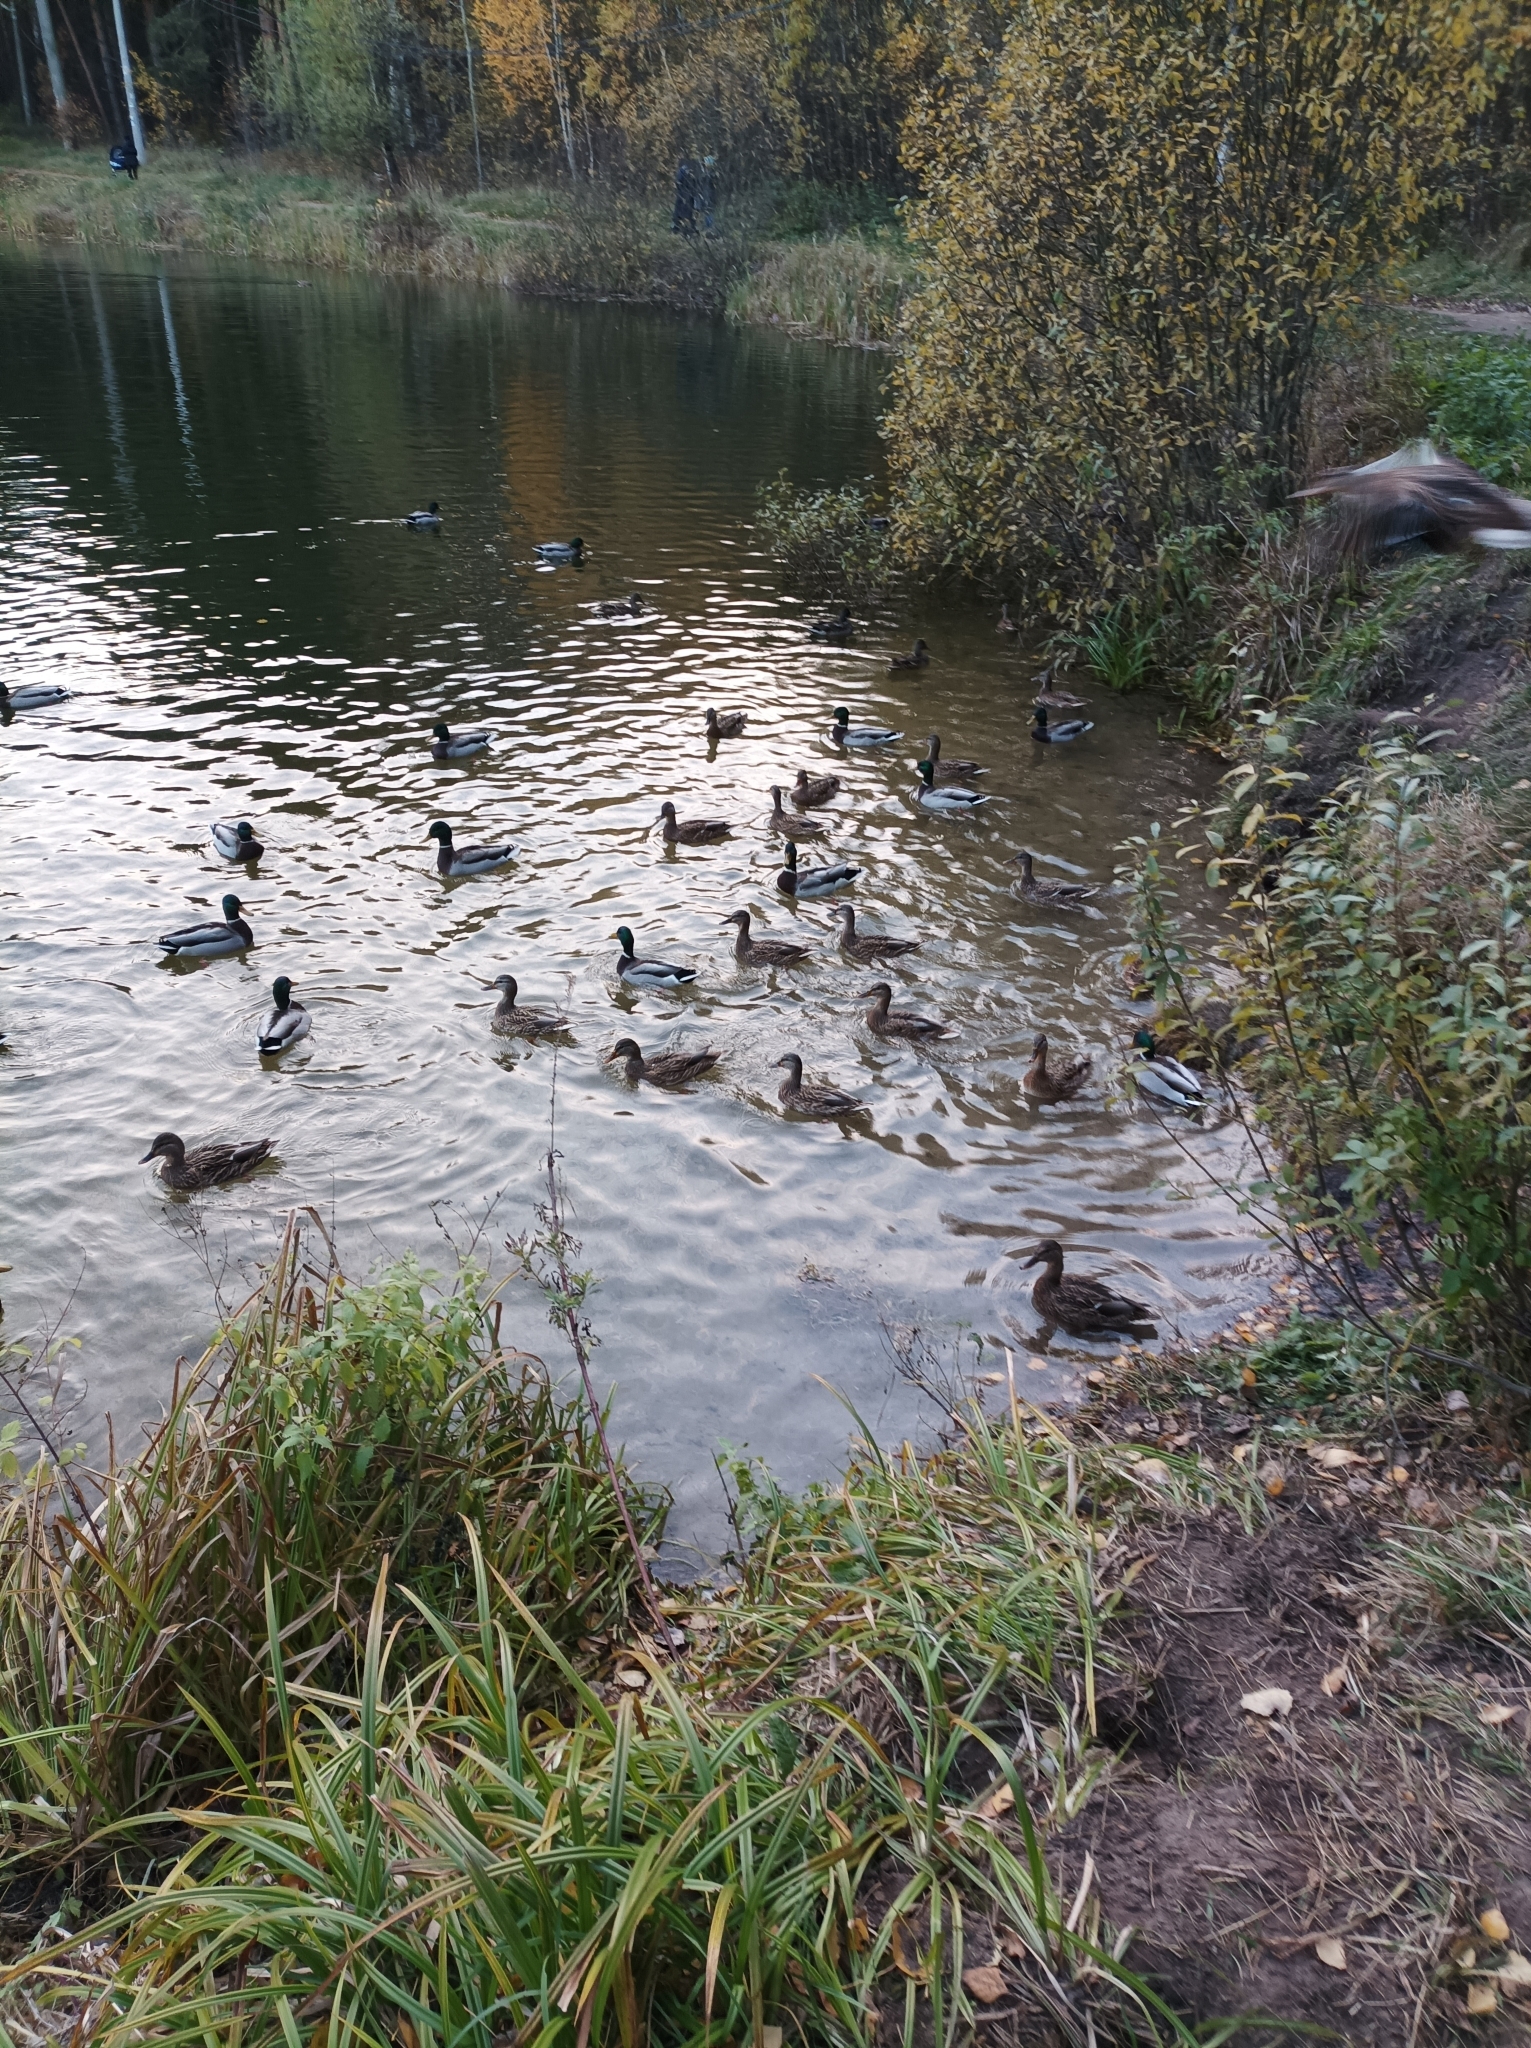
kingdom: Animalia
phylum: Chordata
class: Aves
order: Anseriformes
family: Anatidae
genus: Anas
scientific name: Anas platyrhynchos
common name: Mallard
